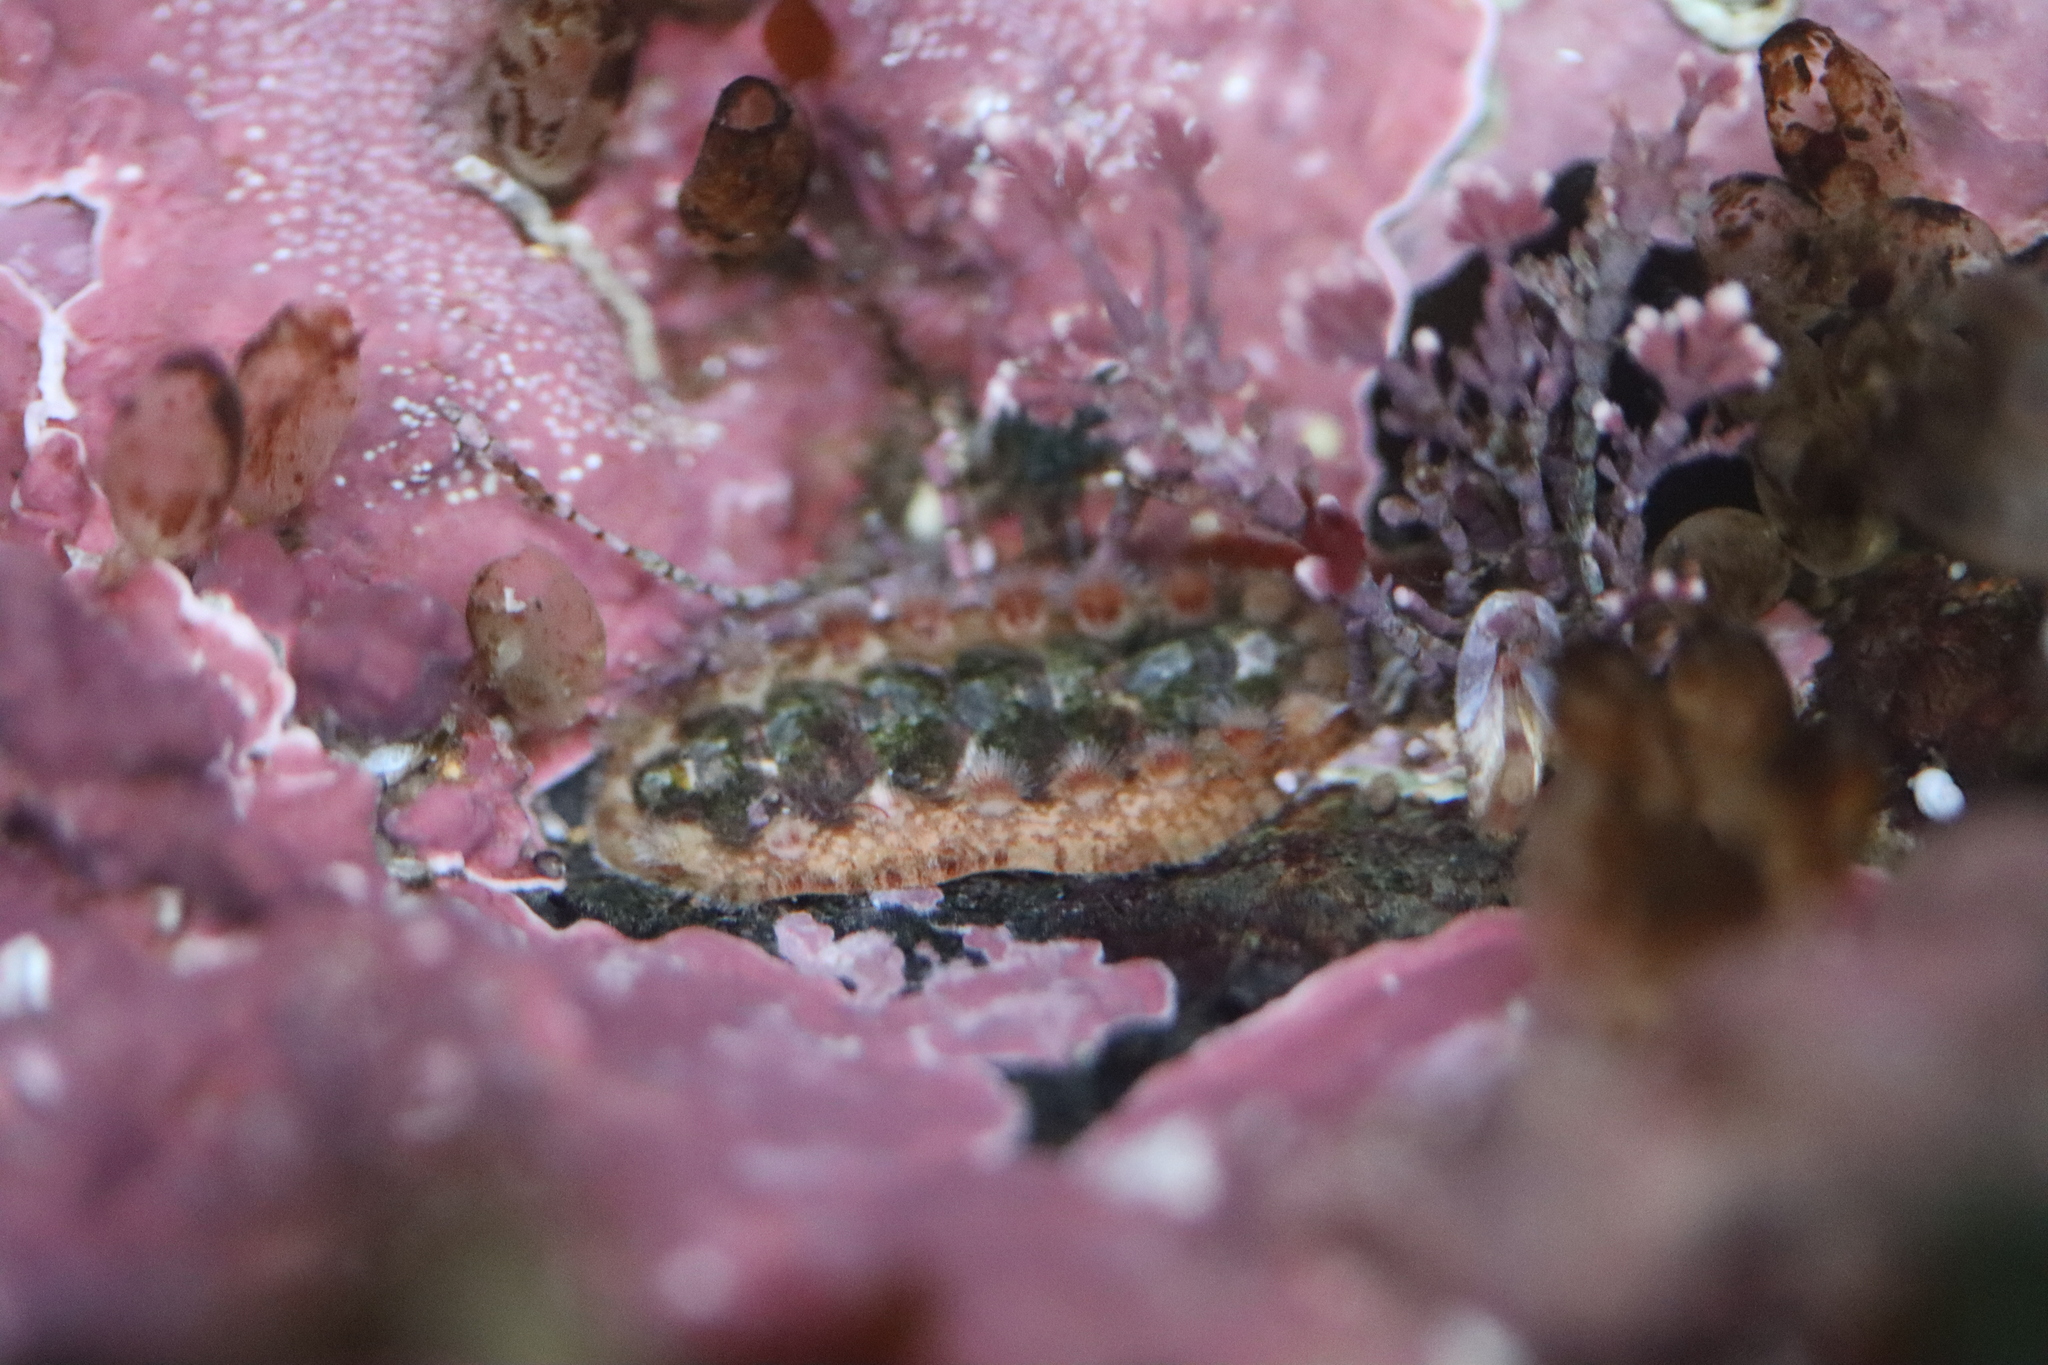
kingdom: Animalia
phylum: Mollusca
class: Polyplacophora
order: Chitonida
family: Acanthochitonidae
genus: Acanthochitona
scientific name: Acanthochitona crinita
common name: Bristly mail chiton
